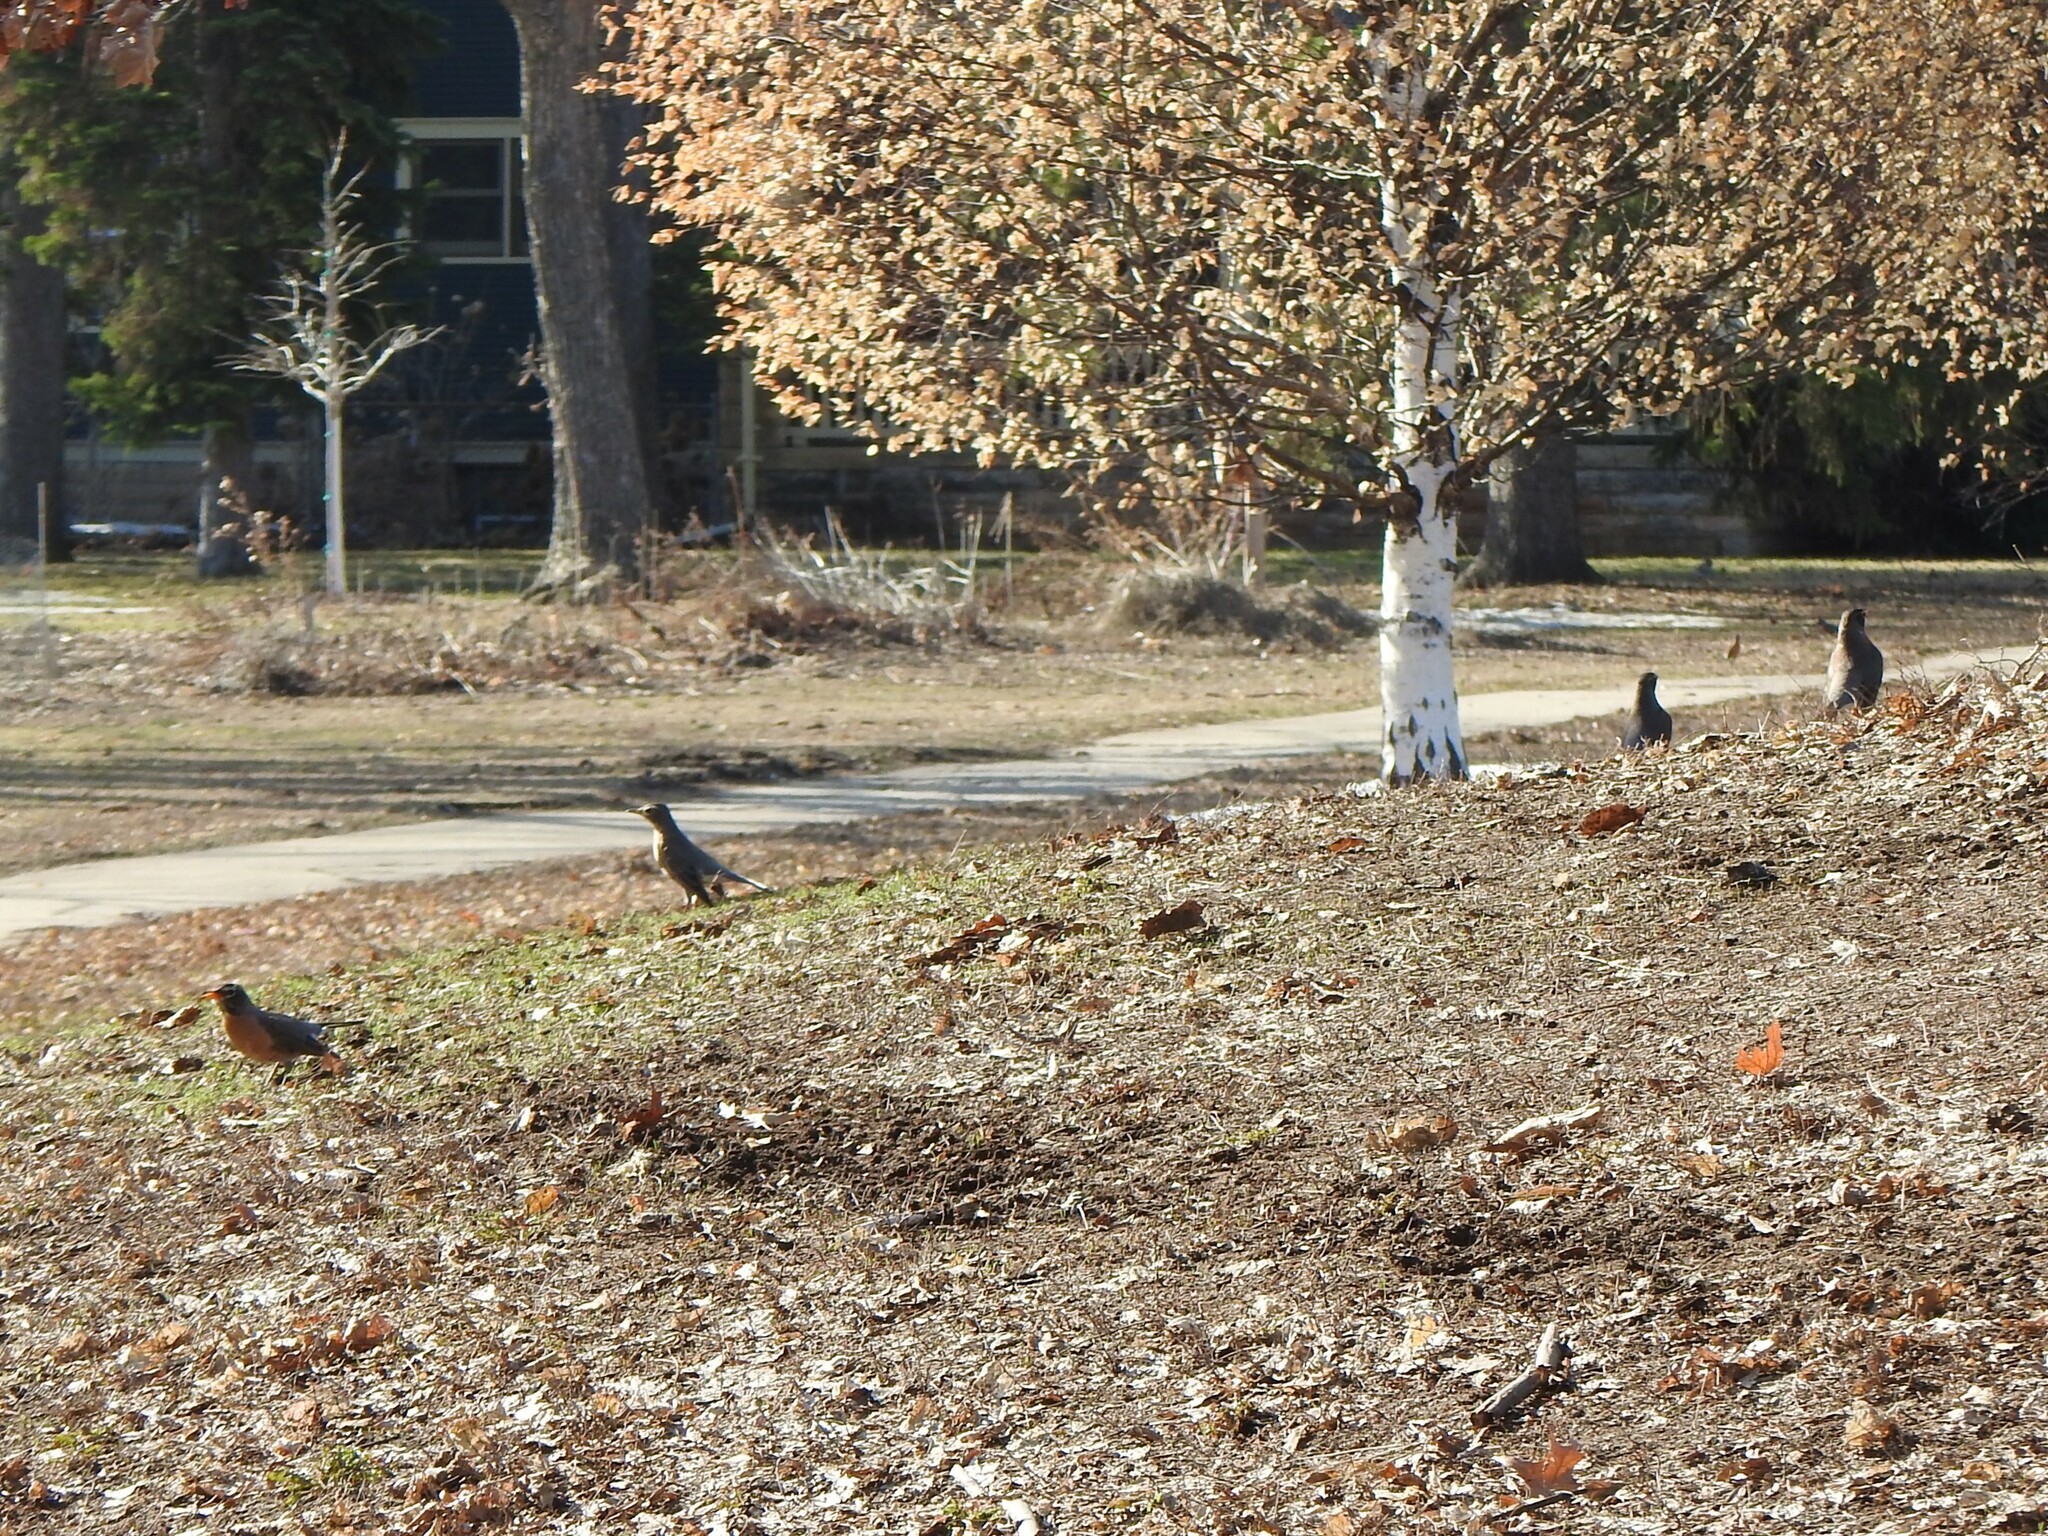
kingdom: Animalia
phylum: Chordata
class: Aves
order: Passeriformes
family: Turdidae
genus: Turdus
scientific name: Turdus migratorius
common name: American robin
